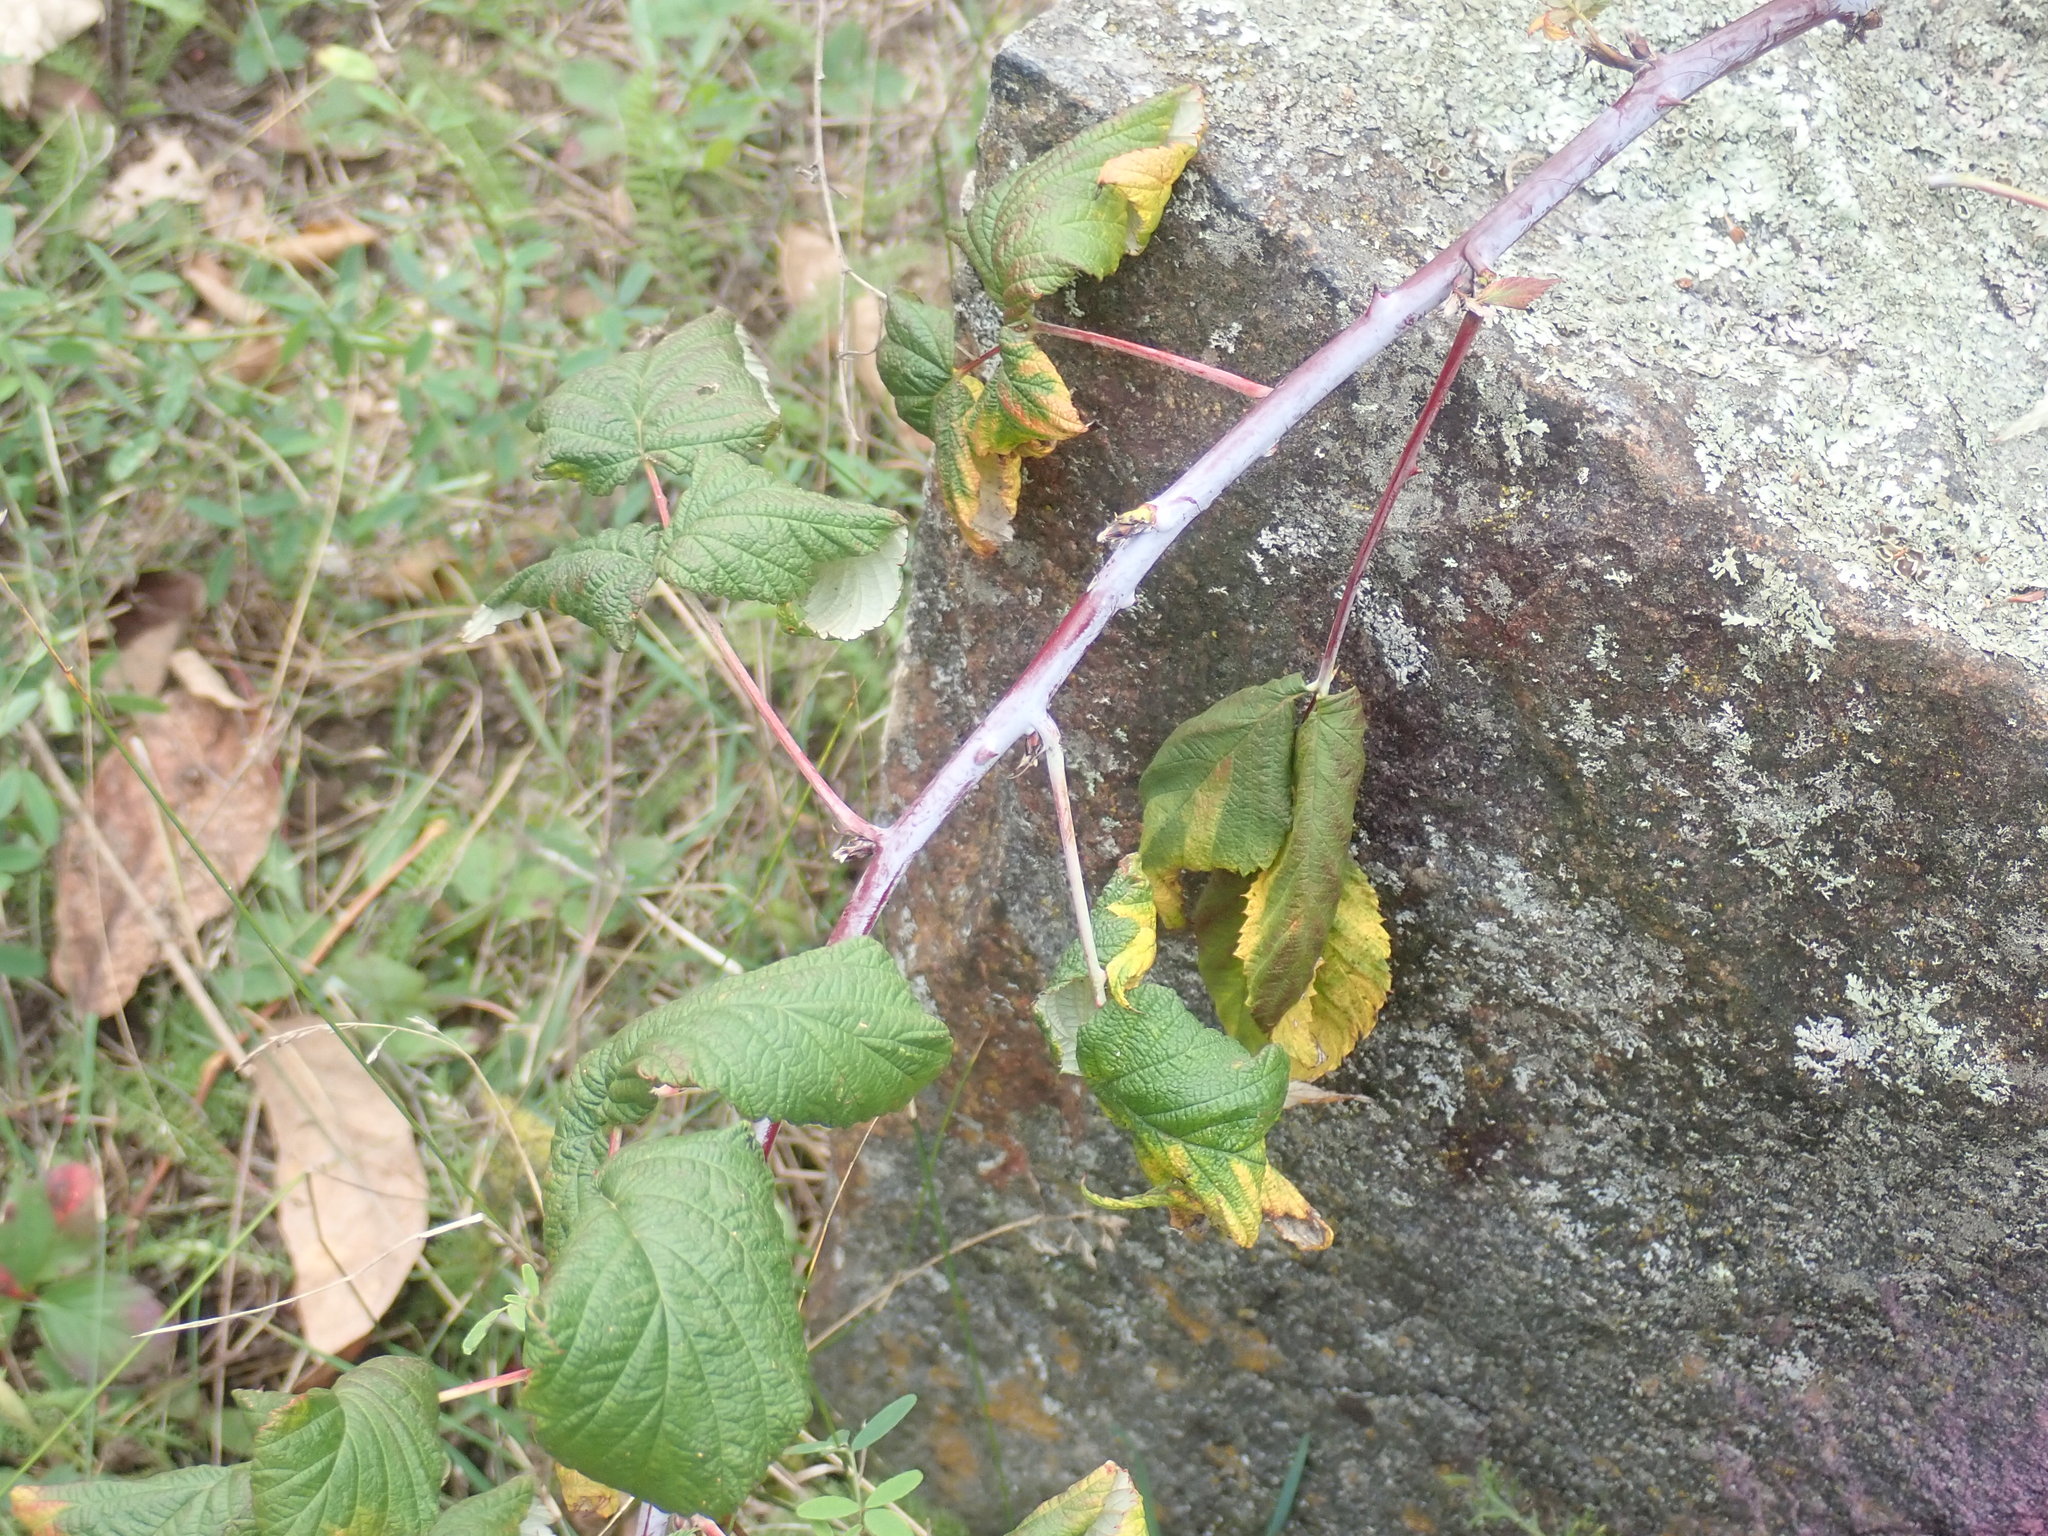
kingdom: Plantae
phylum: Tracheophyta
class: Magnoliopsida
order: Rosales
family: Rosaceae
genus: Rubus
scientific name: Rubus occidentalis
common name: Black raspberry
